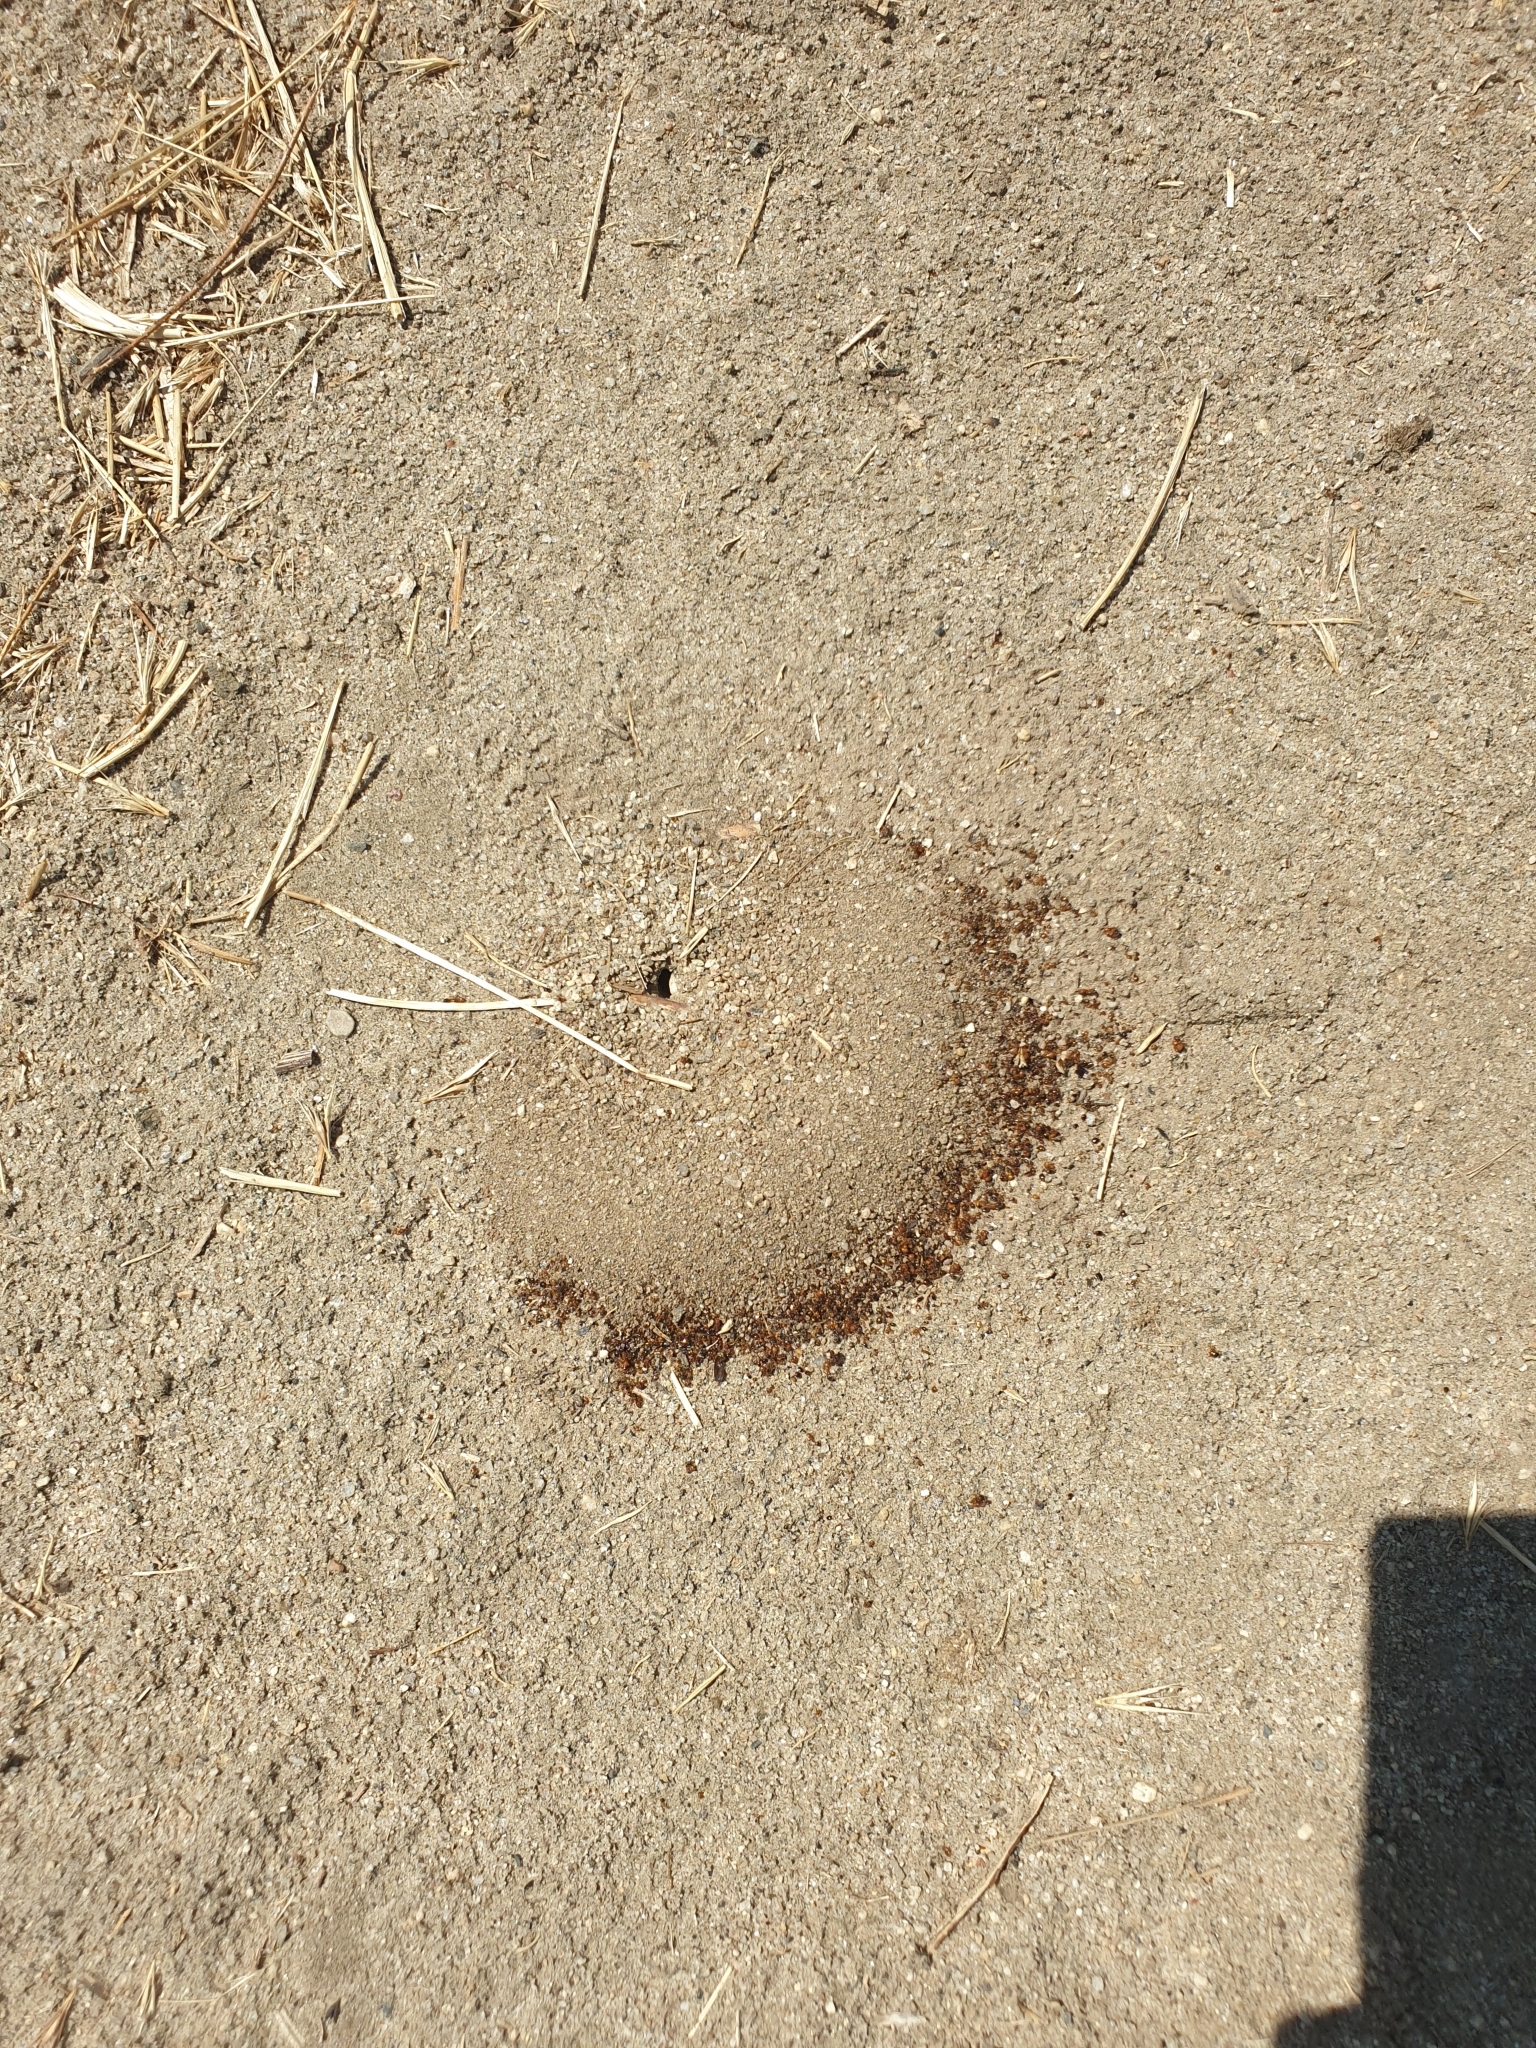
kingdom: Animalia
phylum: Arthropoda
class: Insecta
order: Hymenoptera
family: Formicidae
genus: Dorymyrmex
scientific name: Dorymyrmex bicolor
